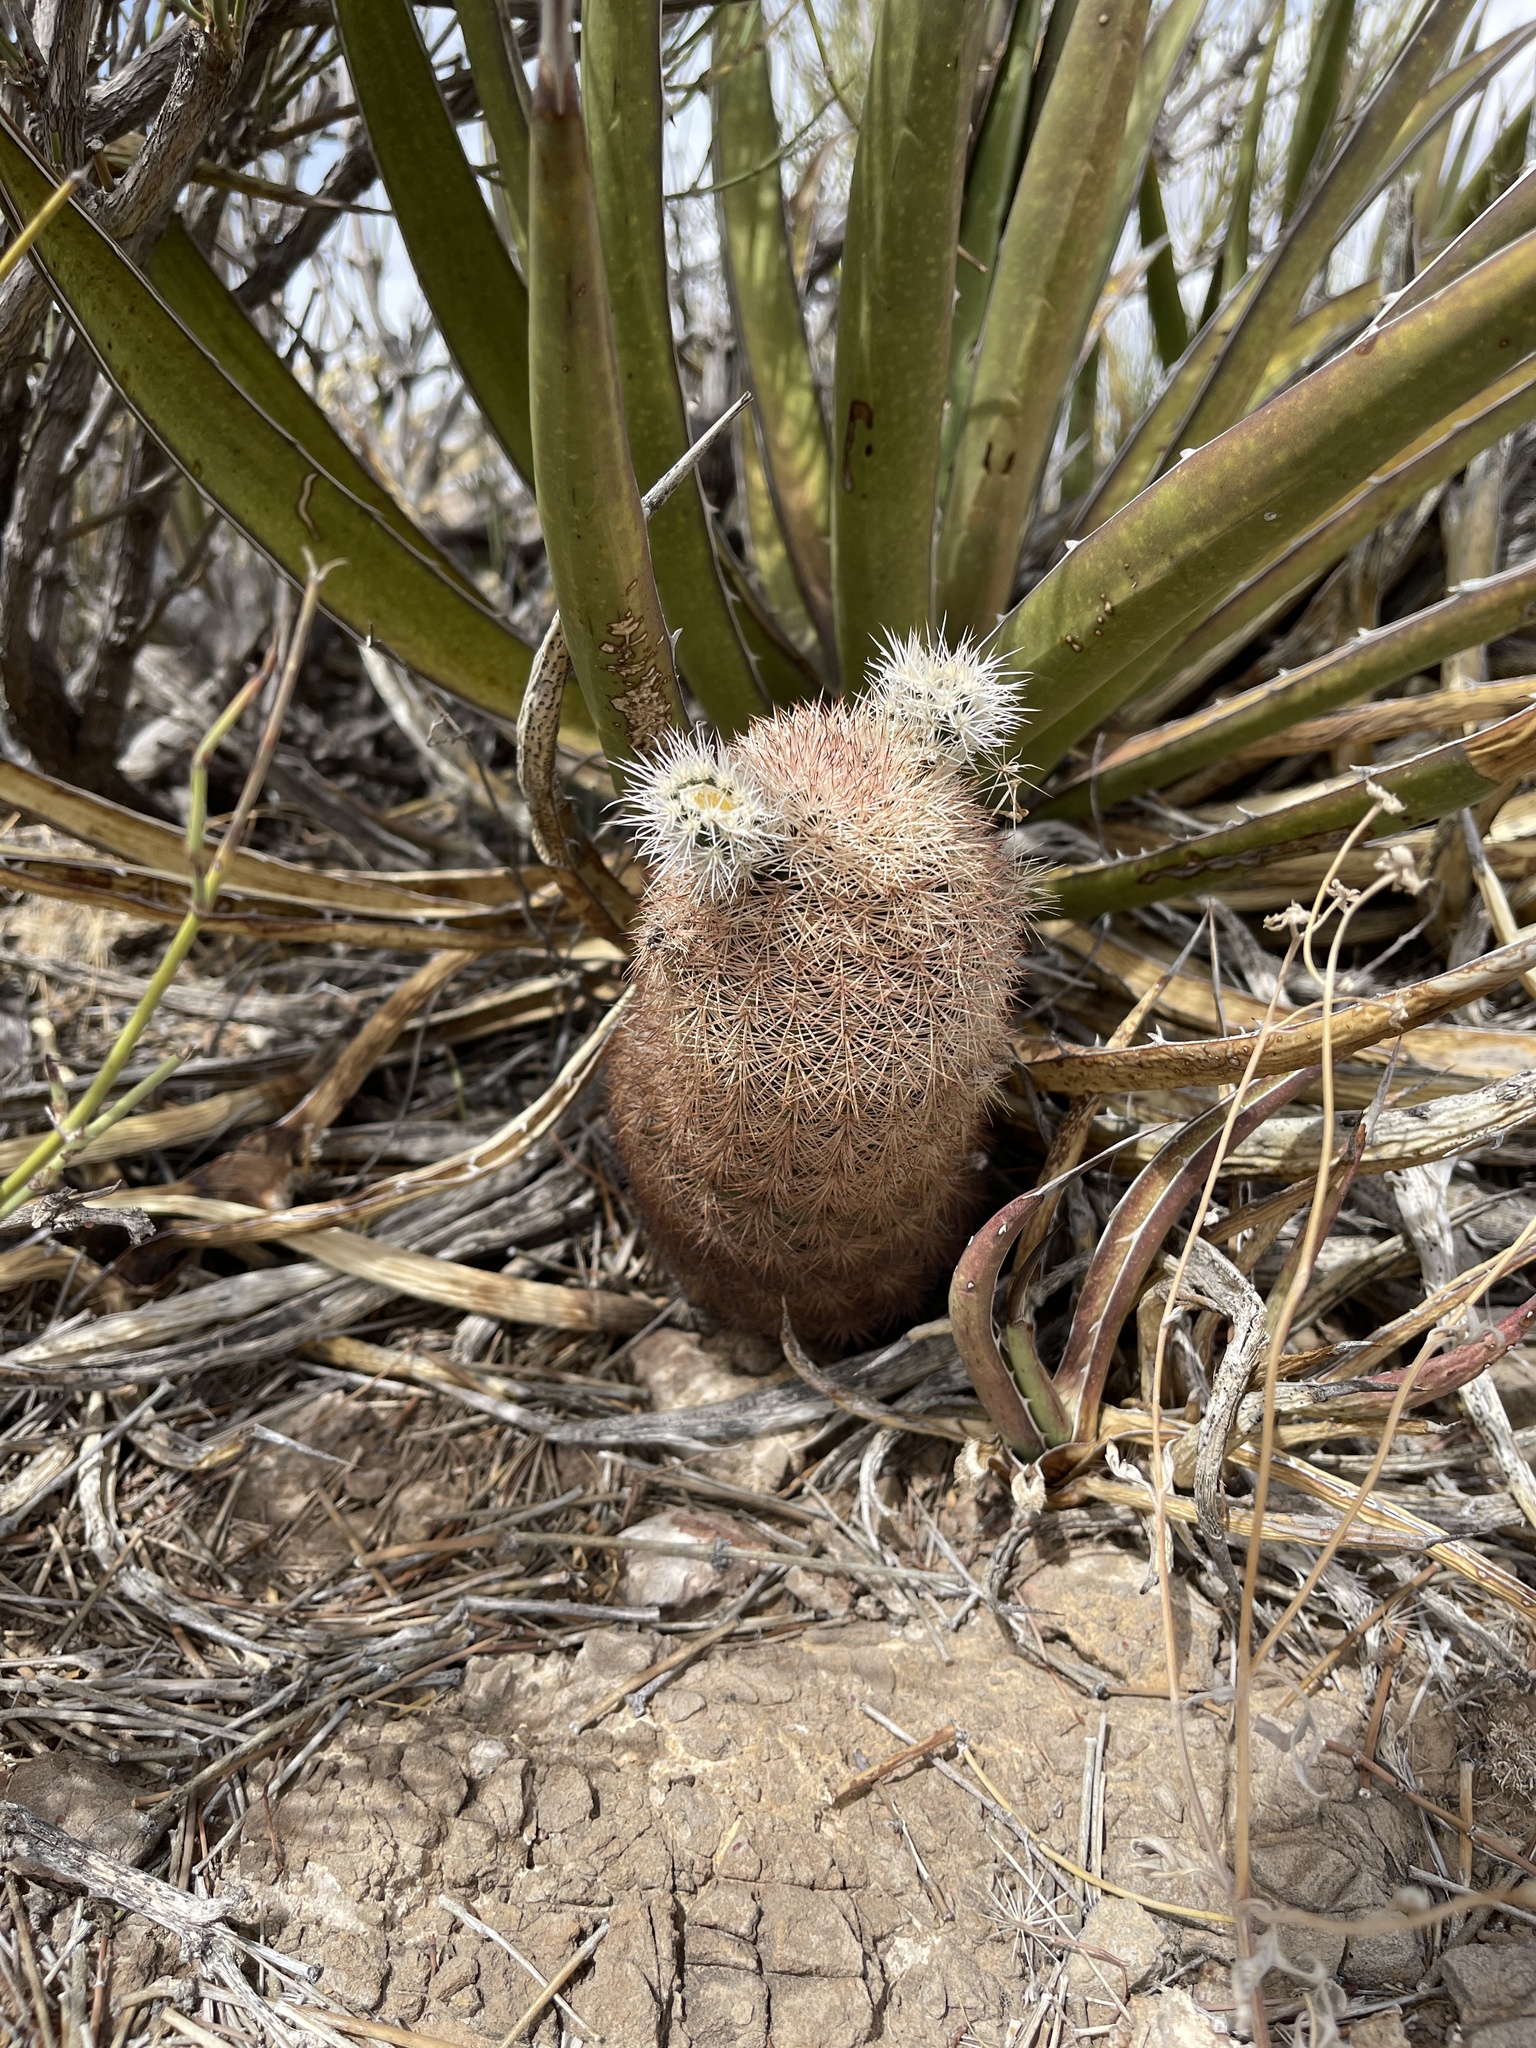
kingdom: Plantae
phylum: Tracheophyta
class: Magnoliopsida
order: Caryophyllales
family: Cactaceae
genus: Echinocereus
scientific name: Echinocereus dasyacanthus
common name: Spiny hedgehog cactus
